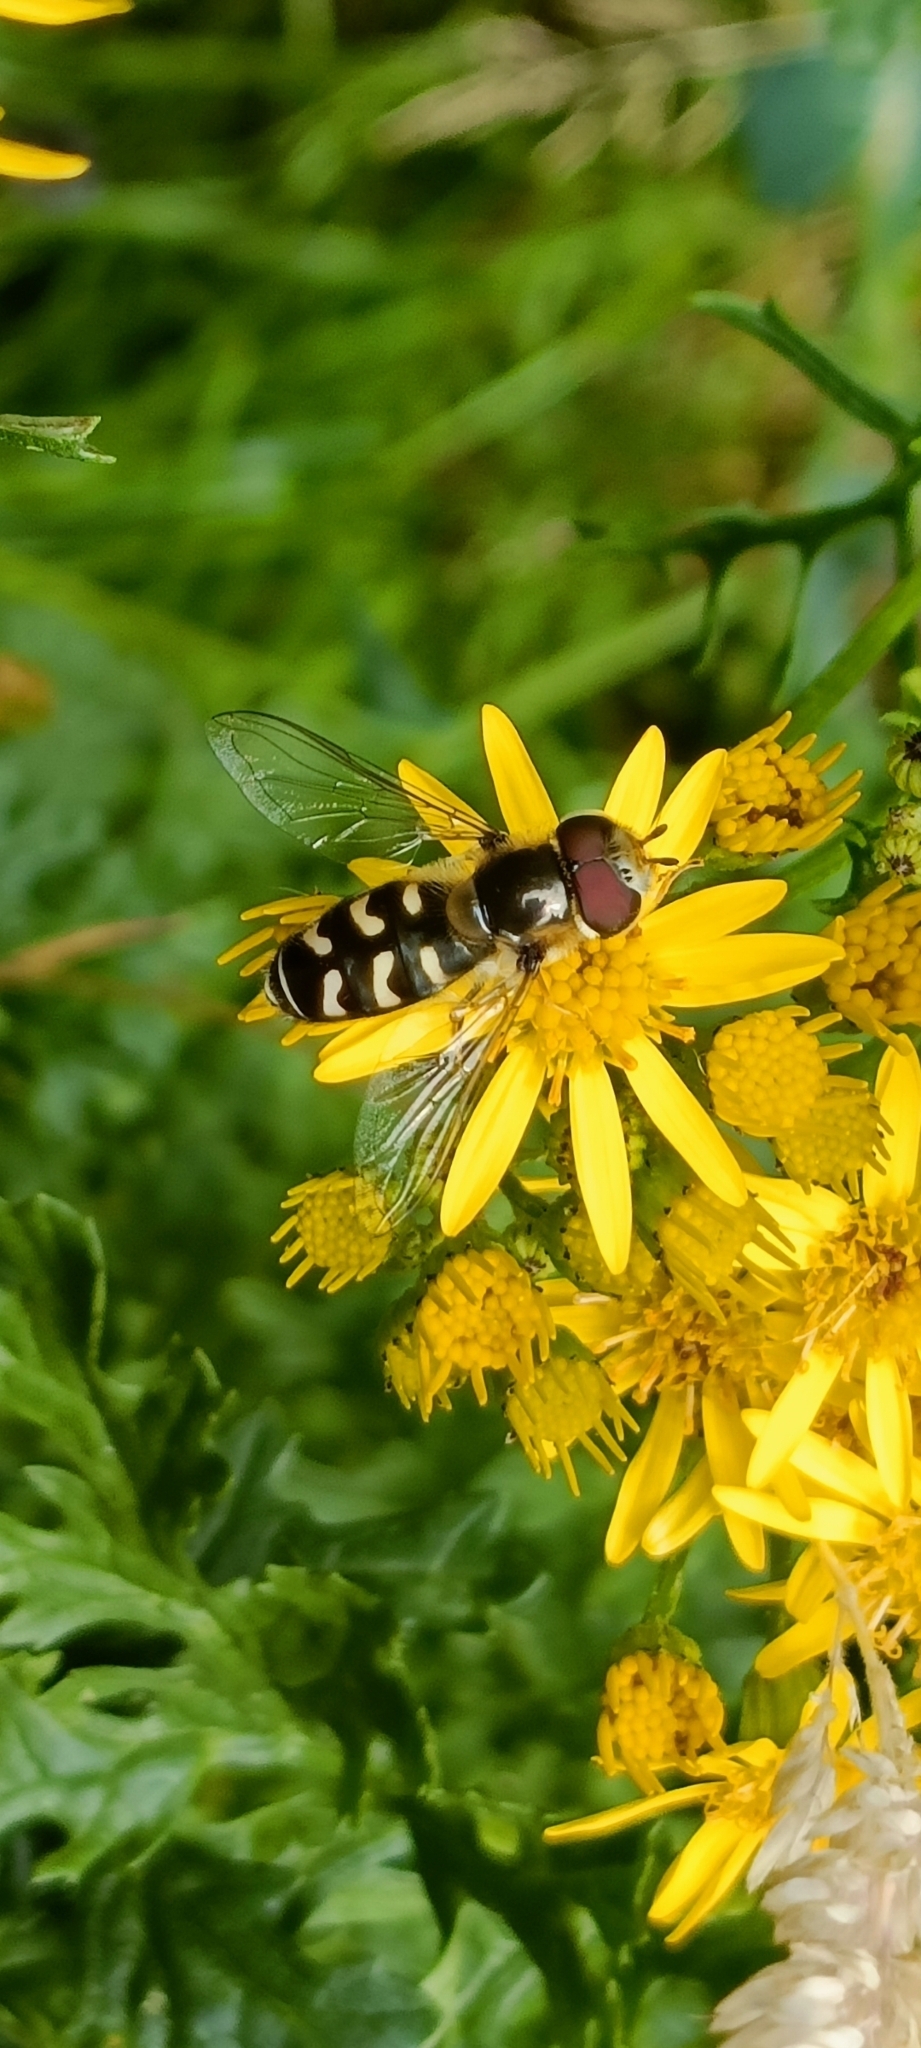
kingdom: Animalia
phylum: Arthropoda
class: Insecta
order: Diptera
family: Syrphidae
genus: Scaeva
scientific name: Scaeva pyrastri
